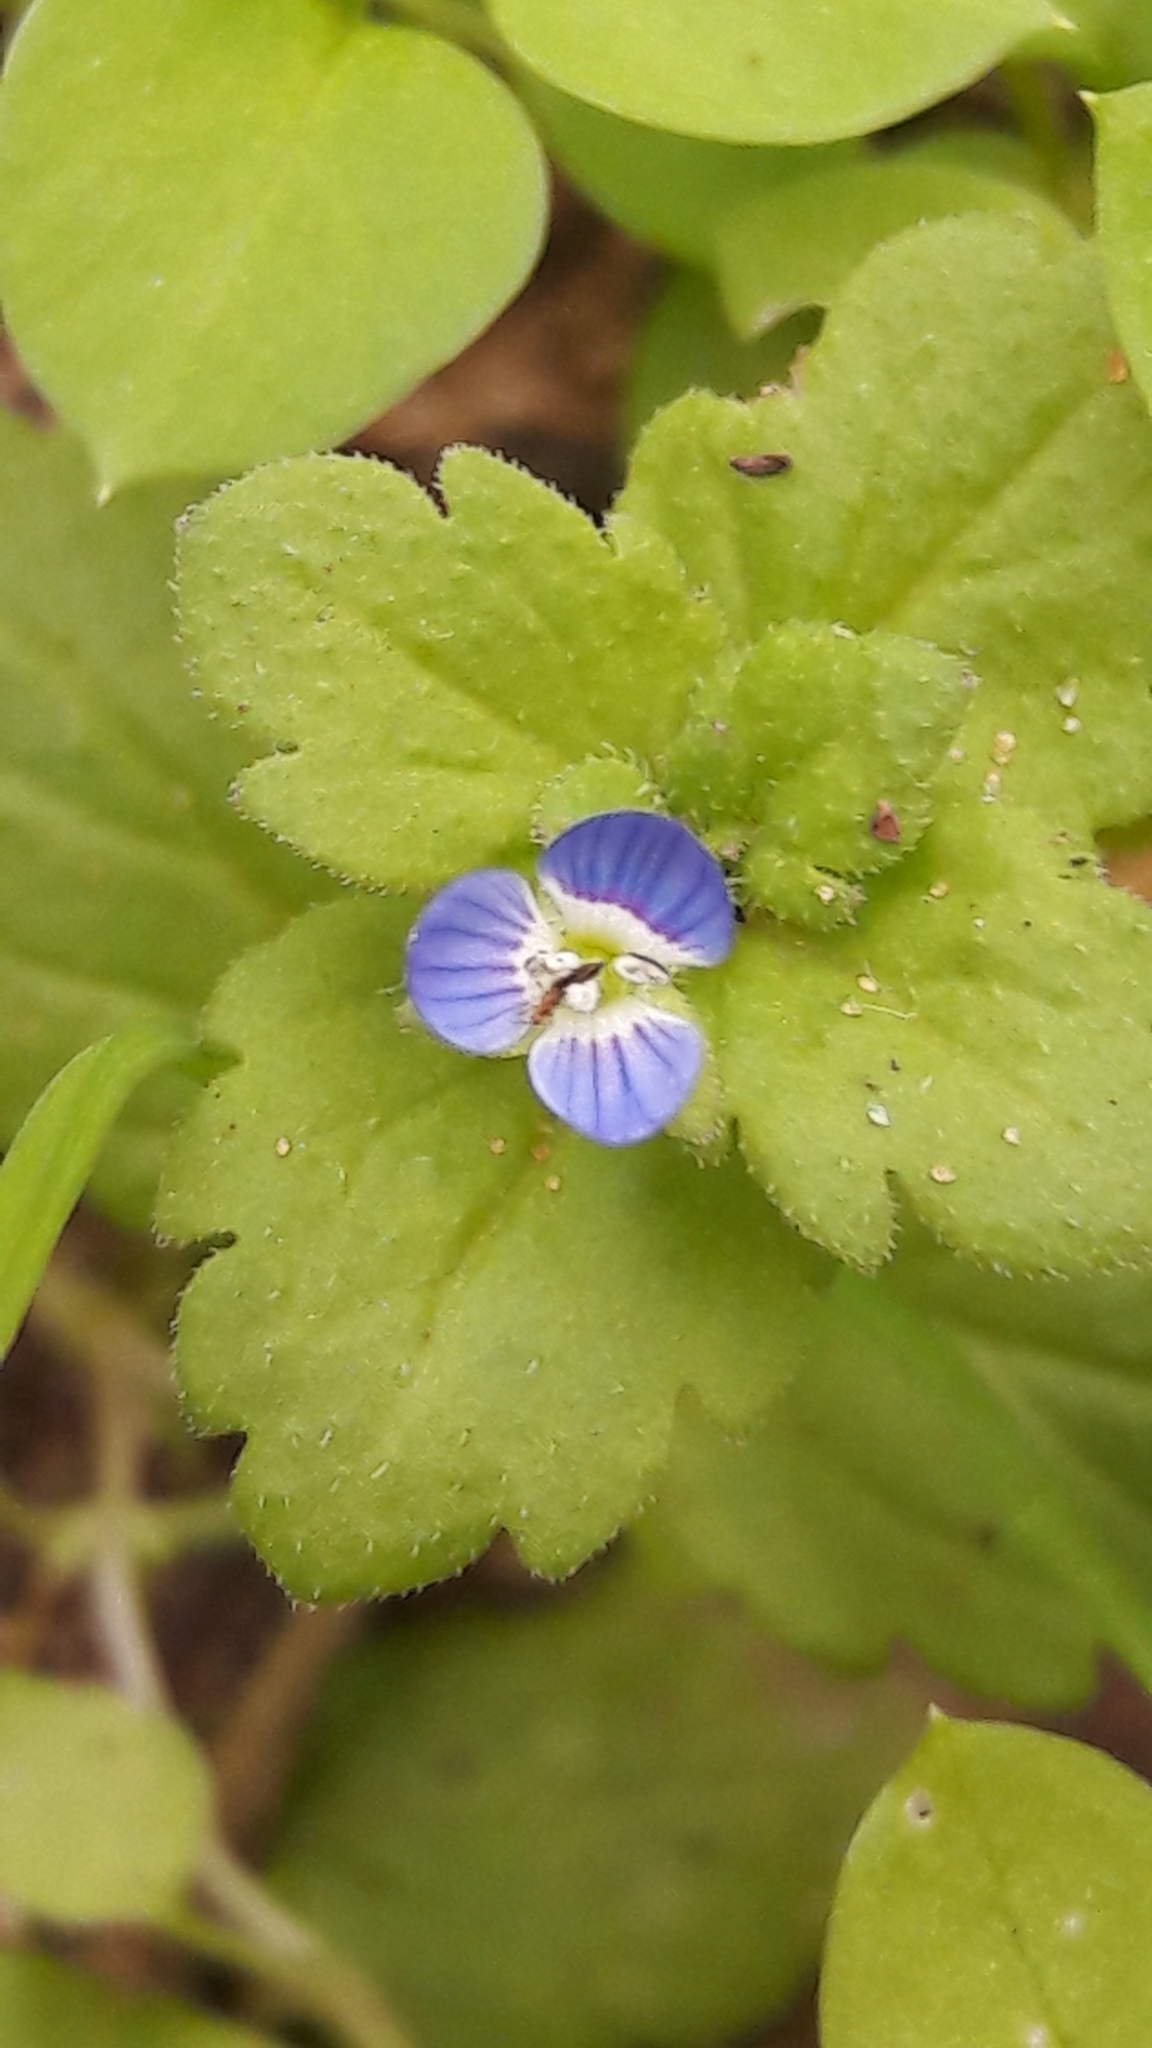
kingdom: Plantae
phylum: Tracheophyta
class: Magnoliopsida
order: Lamiales
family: Plantaginaceae
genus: Veronica
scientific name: Veronica polita
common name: Grey field-speedwell
